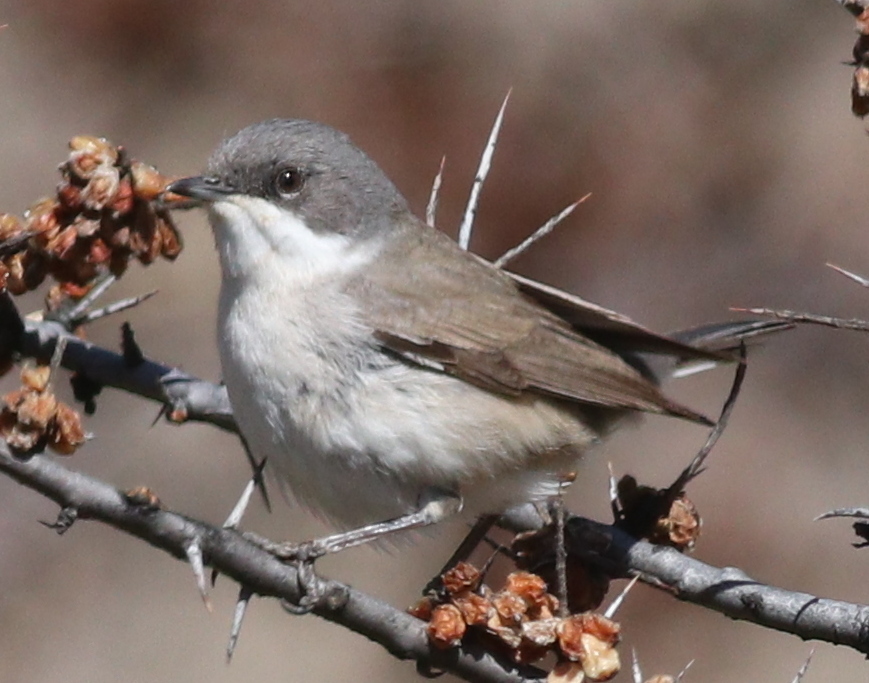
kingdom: Animalia
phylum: Chordata
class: Aves
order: Passeriformes
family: Sylviidae
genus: Sylvia
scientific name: Sylvia curruca
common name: Lesser whitethroat
